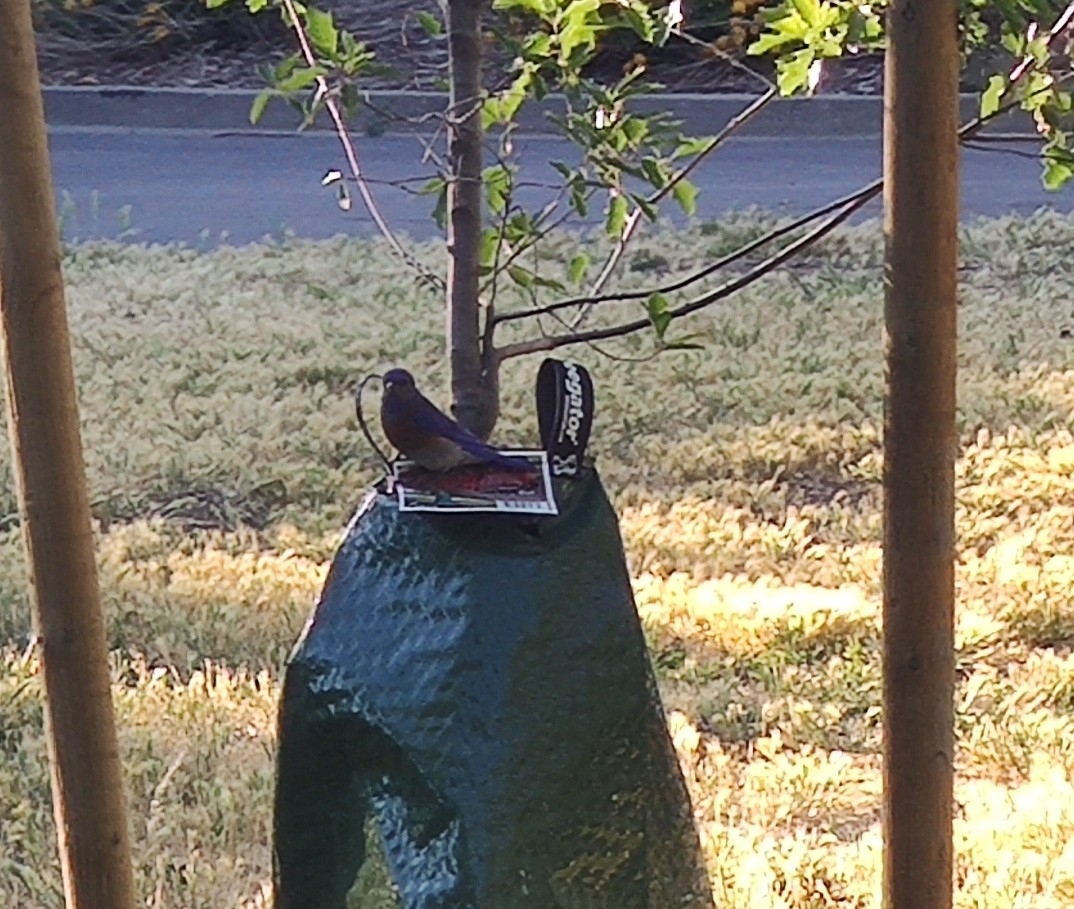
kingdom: Animalia
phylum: Chordata
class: Aves
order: Passeriformes
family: Turdidae
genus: Sialia
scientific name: Sialia mexicana
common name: Western bluebird
